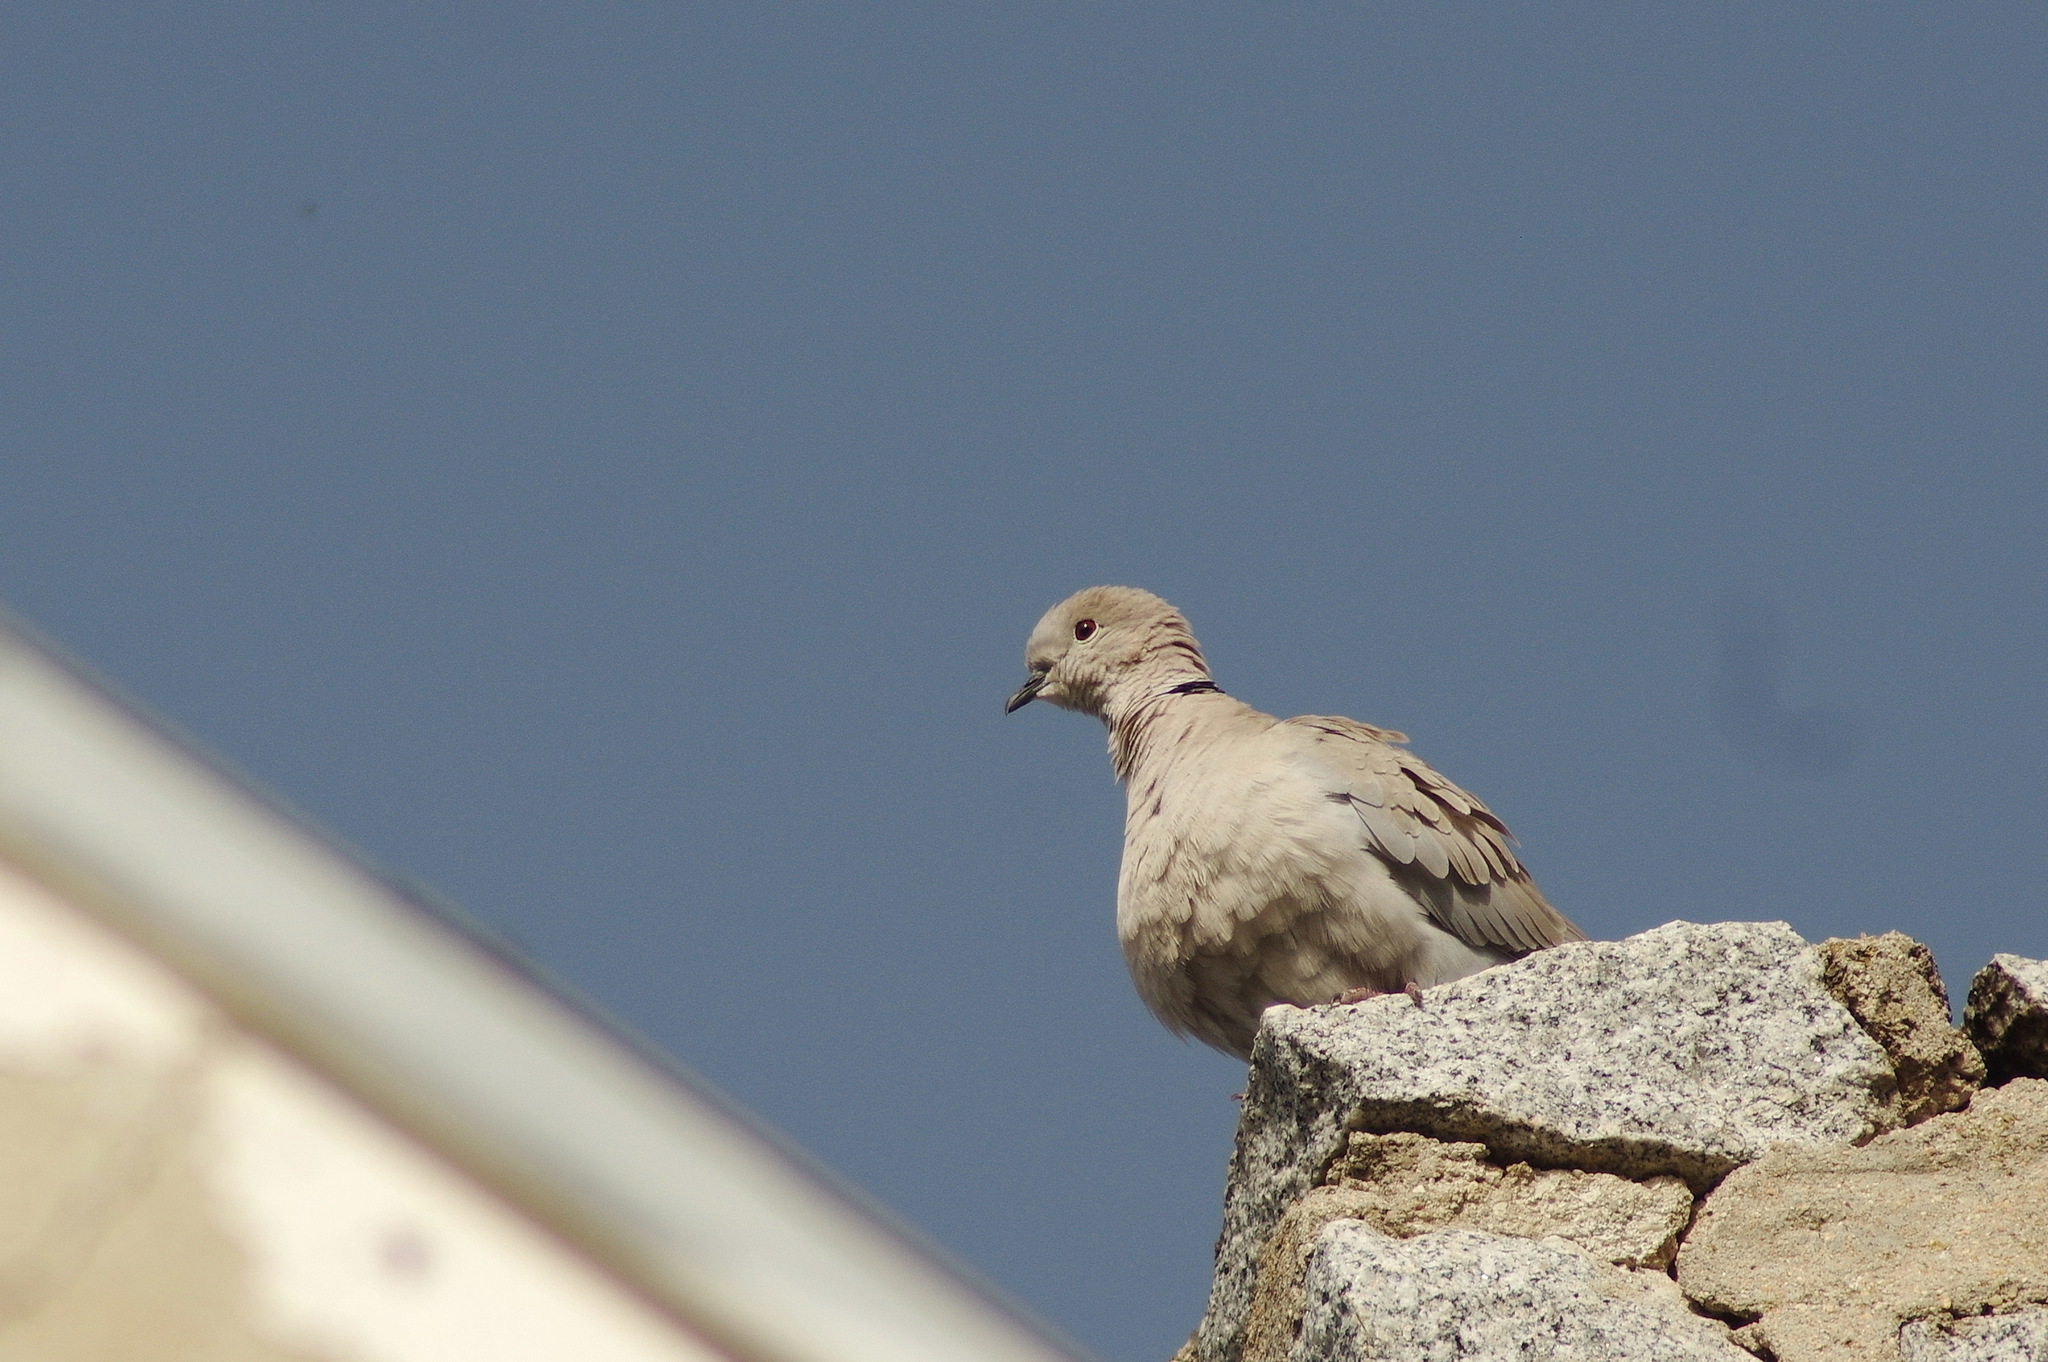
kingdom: Animalia
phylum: Chordata
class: Aves
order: Columbiformes
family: Columbidae
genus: Streptopelia
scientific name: Streptopelia decaocto
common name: Eurasian collared dove
